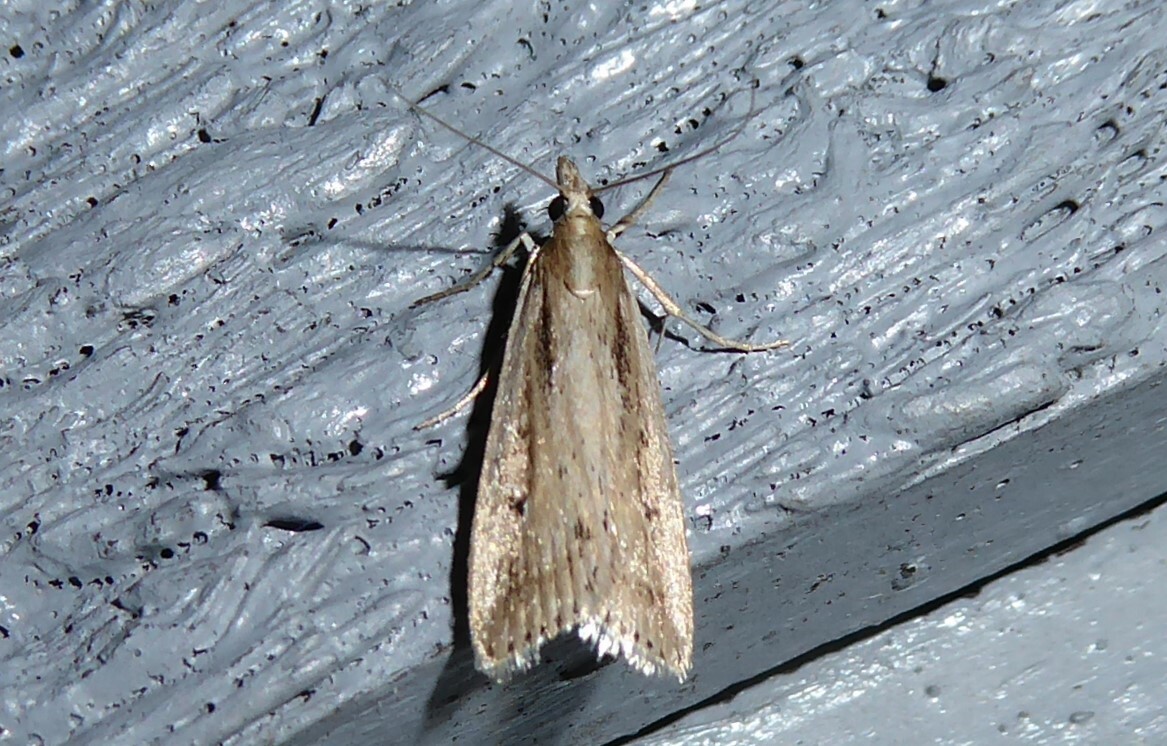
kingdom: Animalia
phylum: Arthropoda
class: Insecta
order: Lepidoptera
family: Crambidae
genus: Eudonia
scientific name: Eudonia sabulosella
